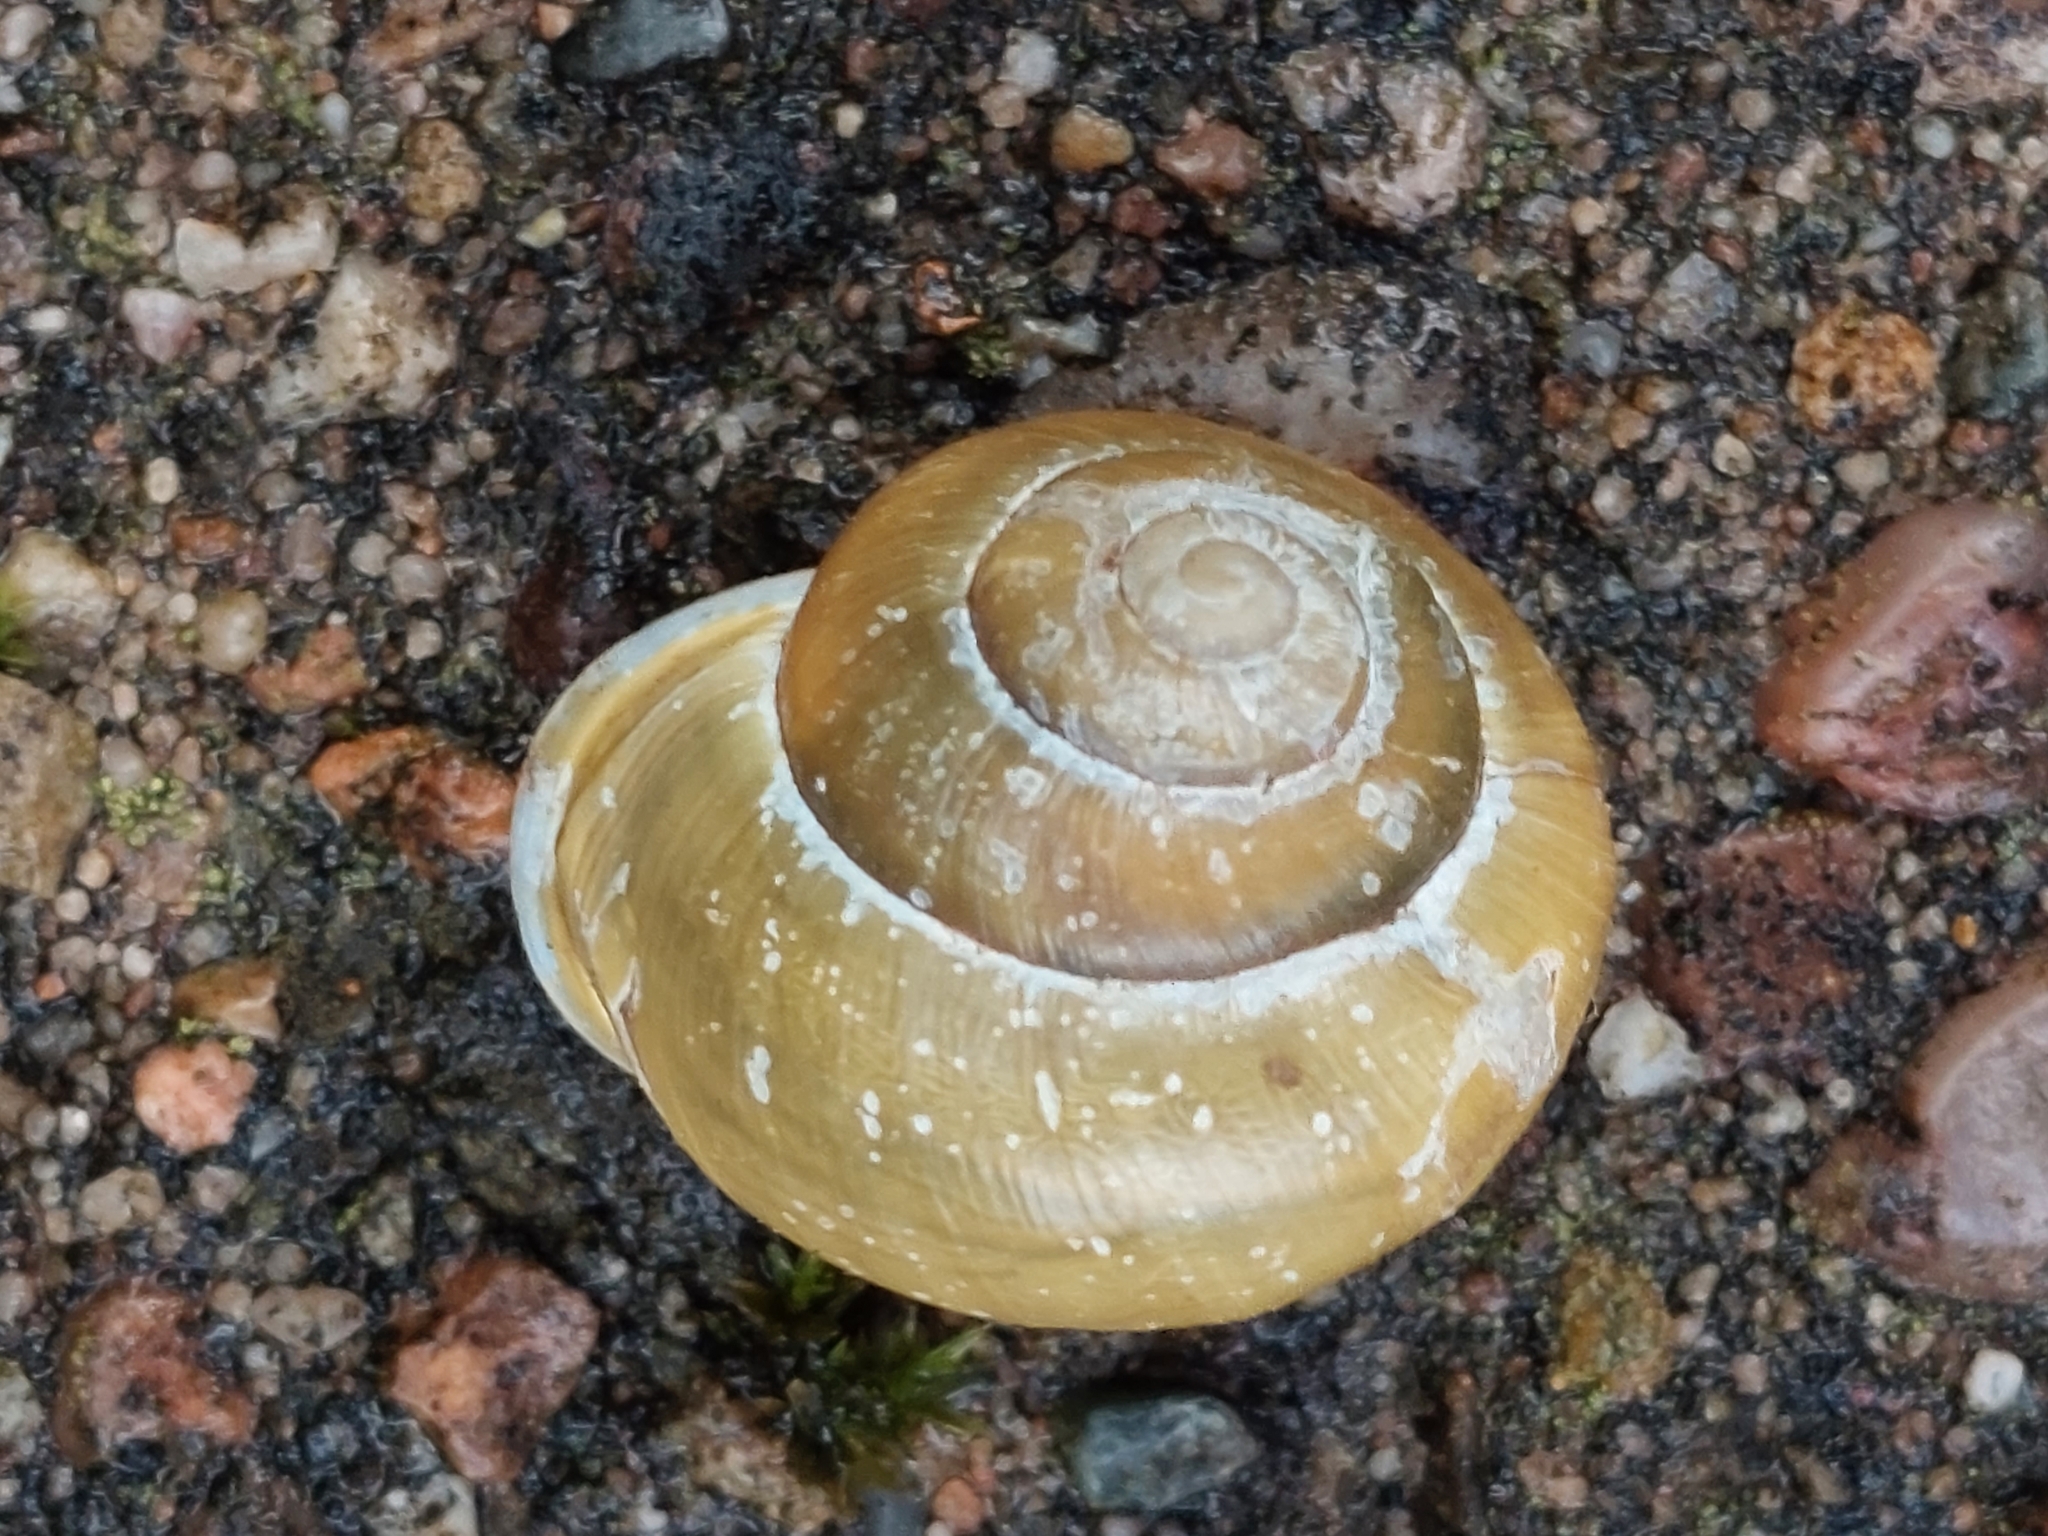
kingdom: Animalia
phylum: Mollusca
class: Gastropoda
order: Stylommatophora
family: Helicidae
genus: Cepaea
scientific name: Cepaea hortensis
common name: White-lip gardensnail
